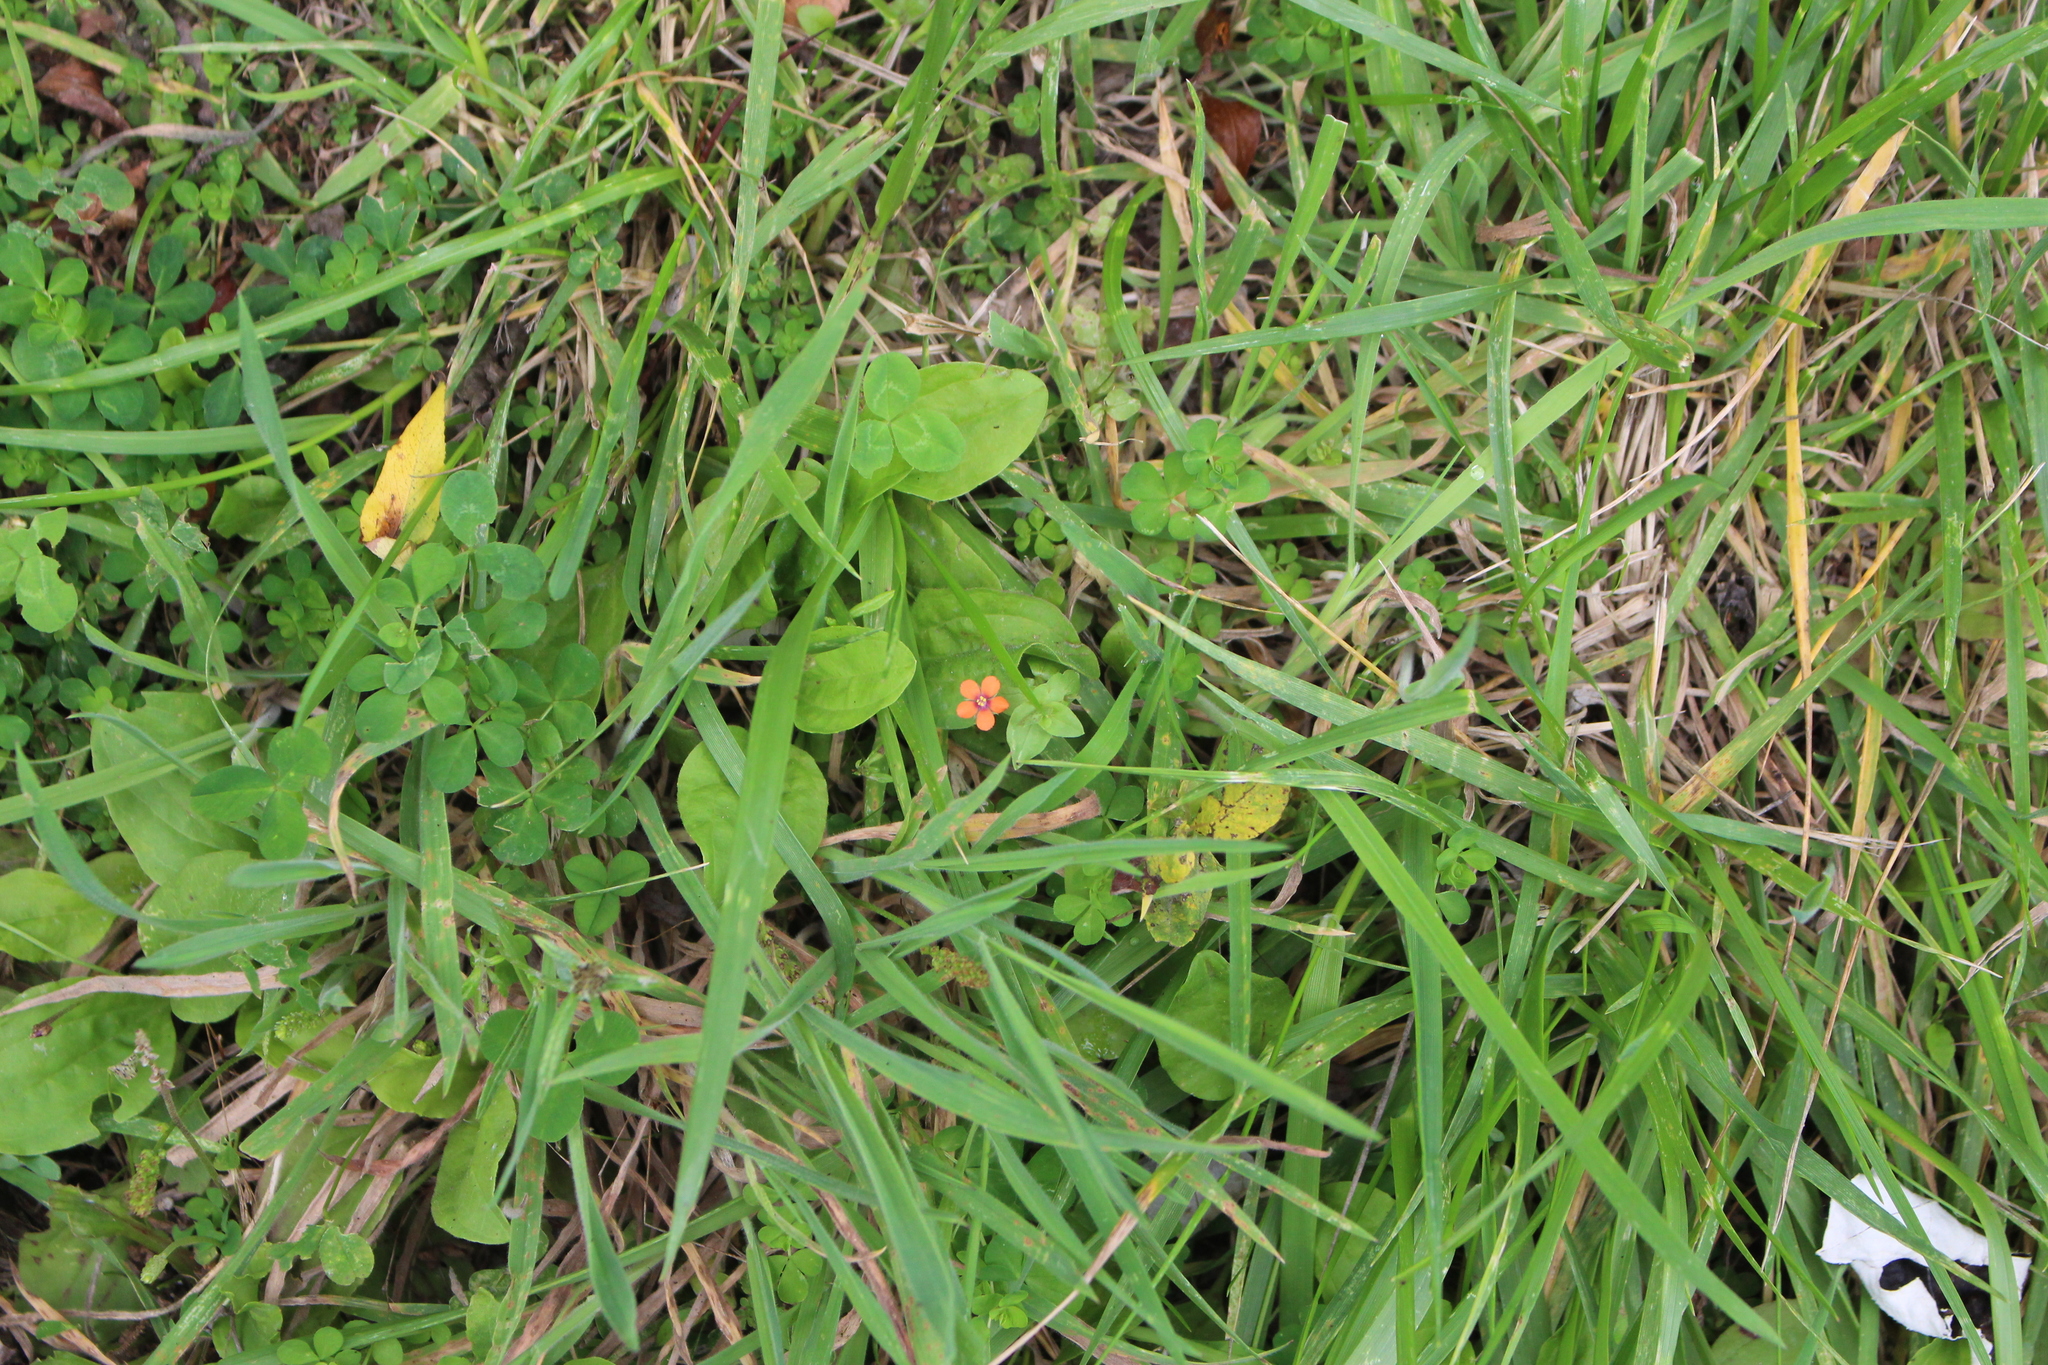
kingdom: Plantae
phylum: Tracheophyta
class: Magnoliopsida
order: Ericales
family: Primulaceae
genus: Lysimachia
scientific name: Lysimachia arvensis
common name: Scarlet pimpernel
